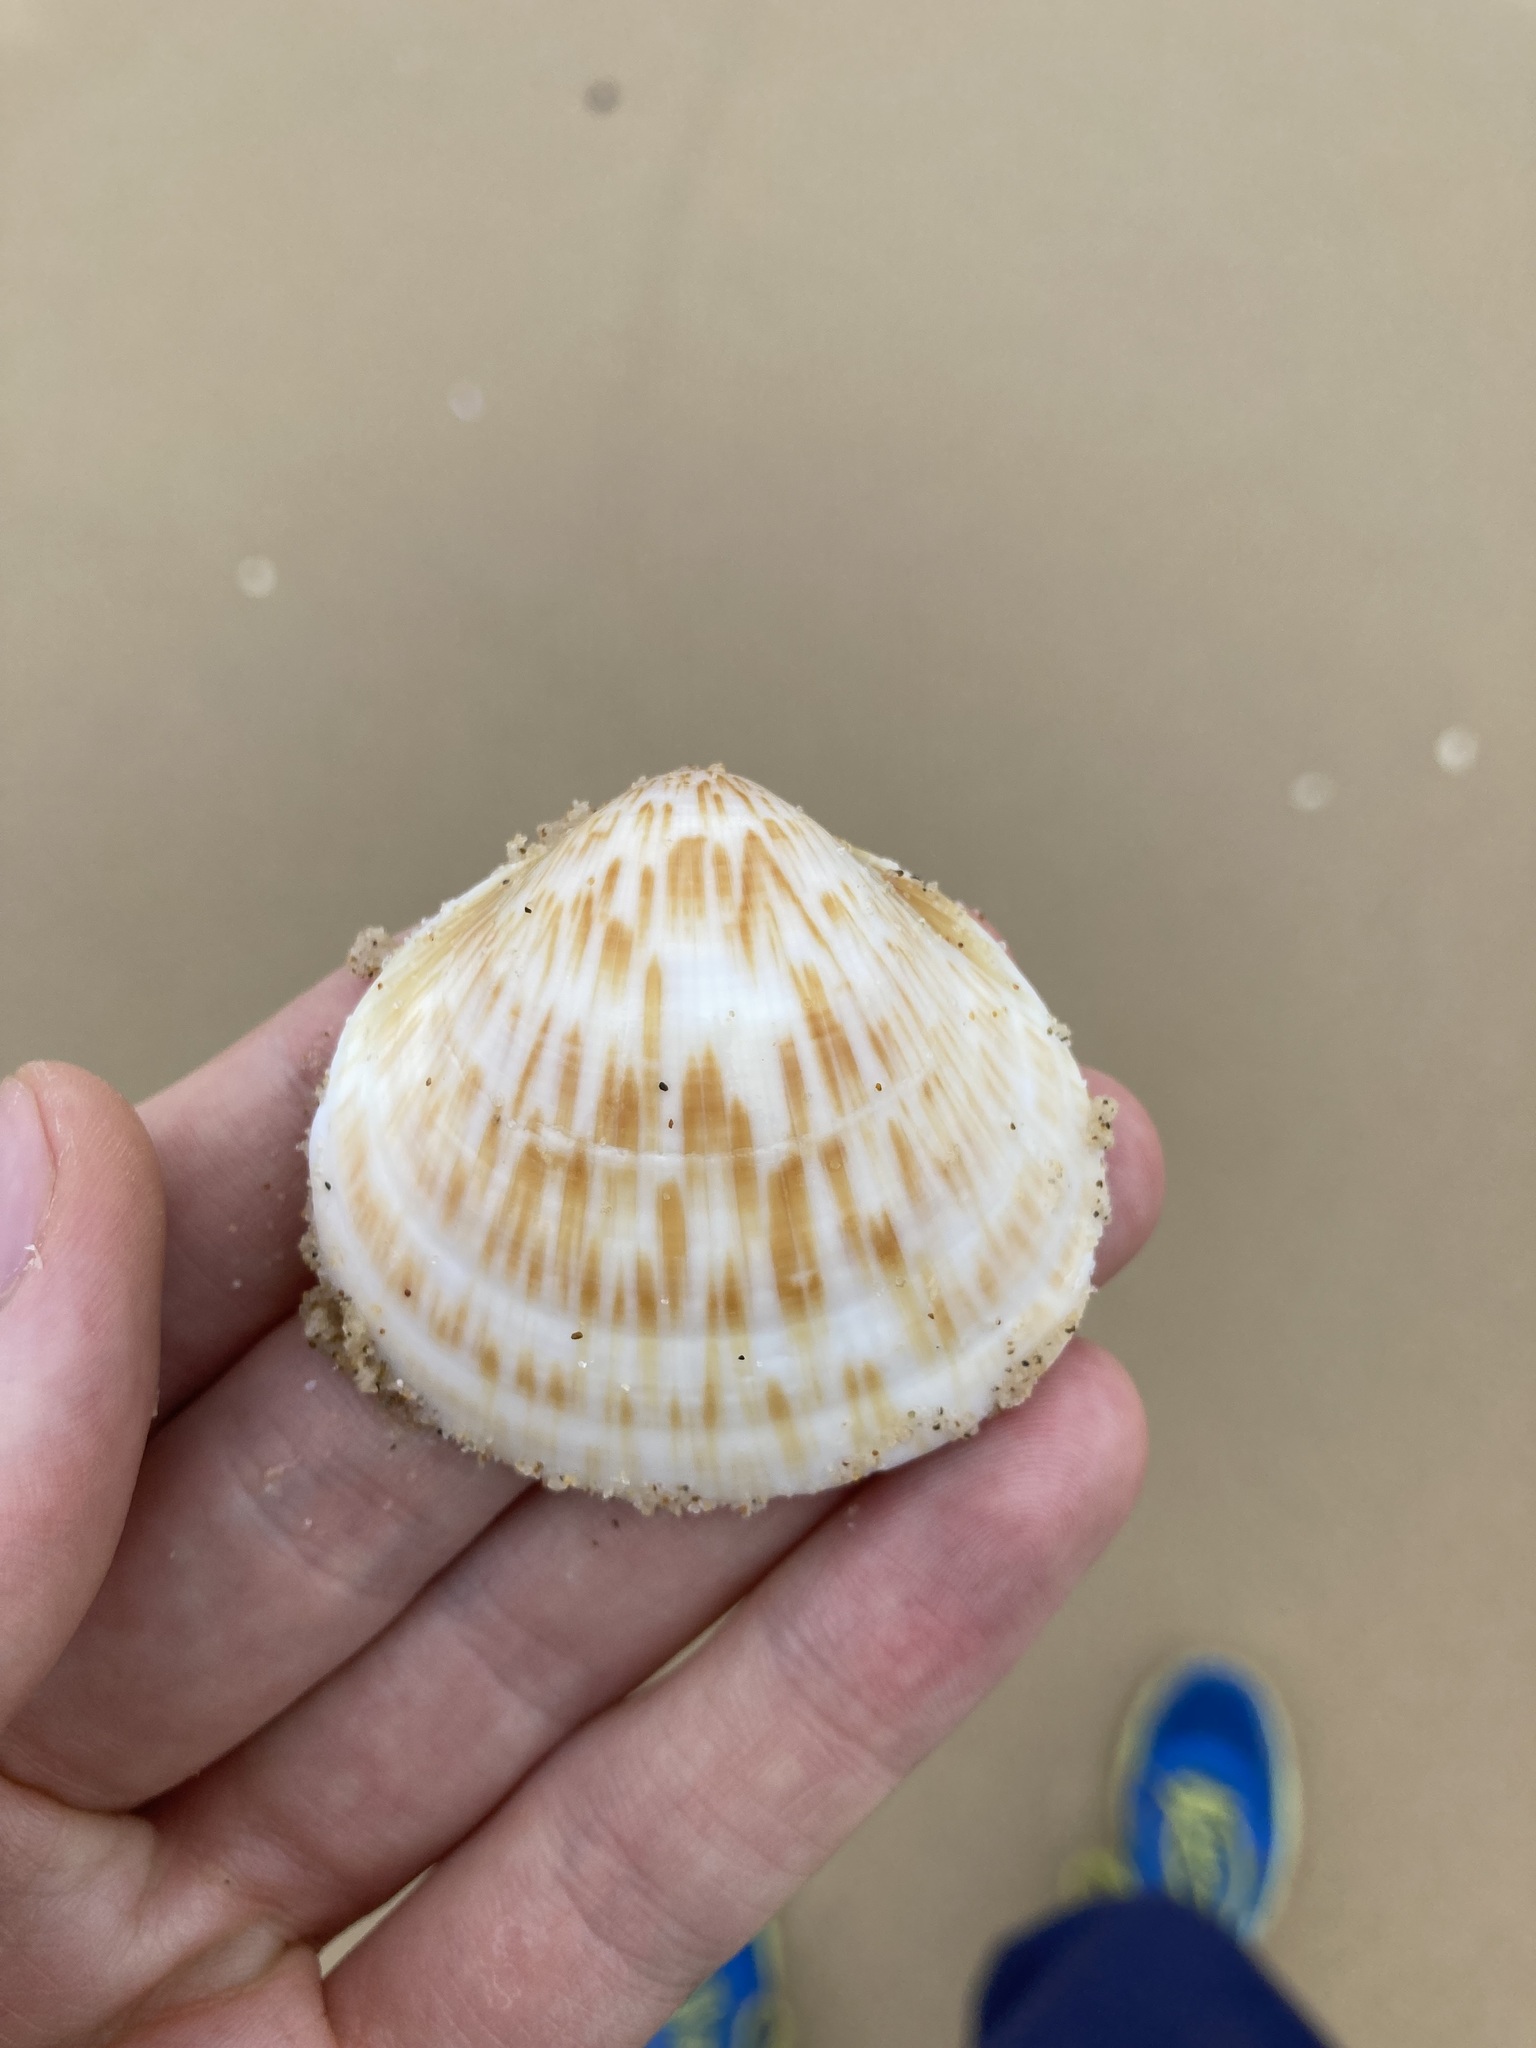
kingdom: Animalia
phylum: Mollusca
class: Bivalvia
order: Arcida
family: Glycymerididae
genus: Glycymeris
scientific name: Glycymeris grayana
